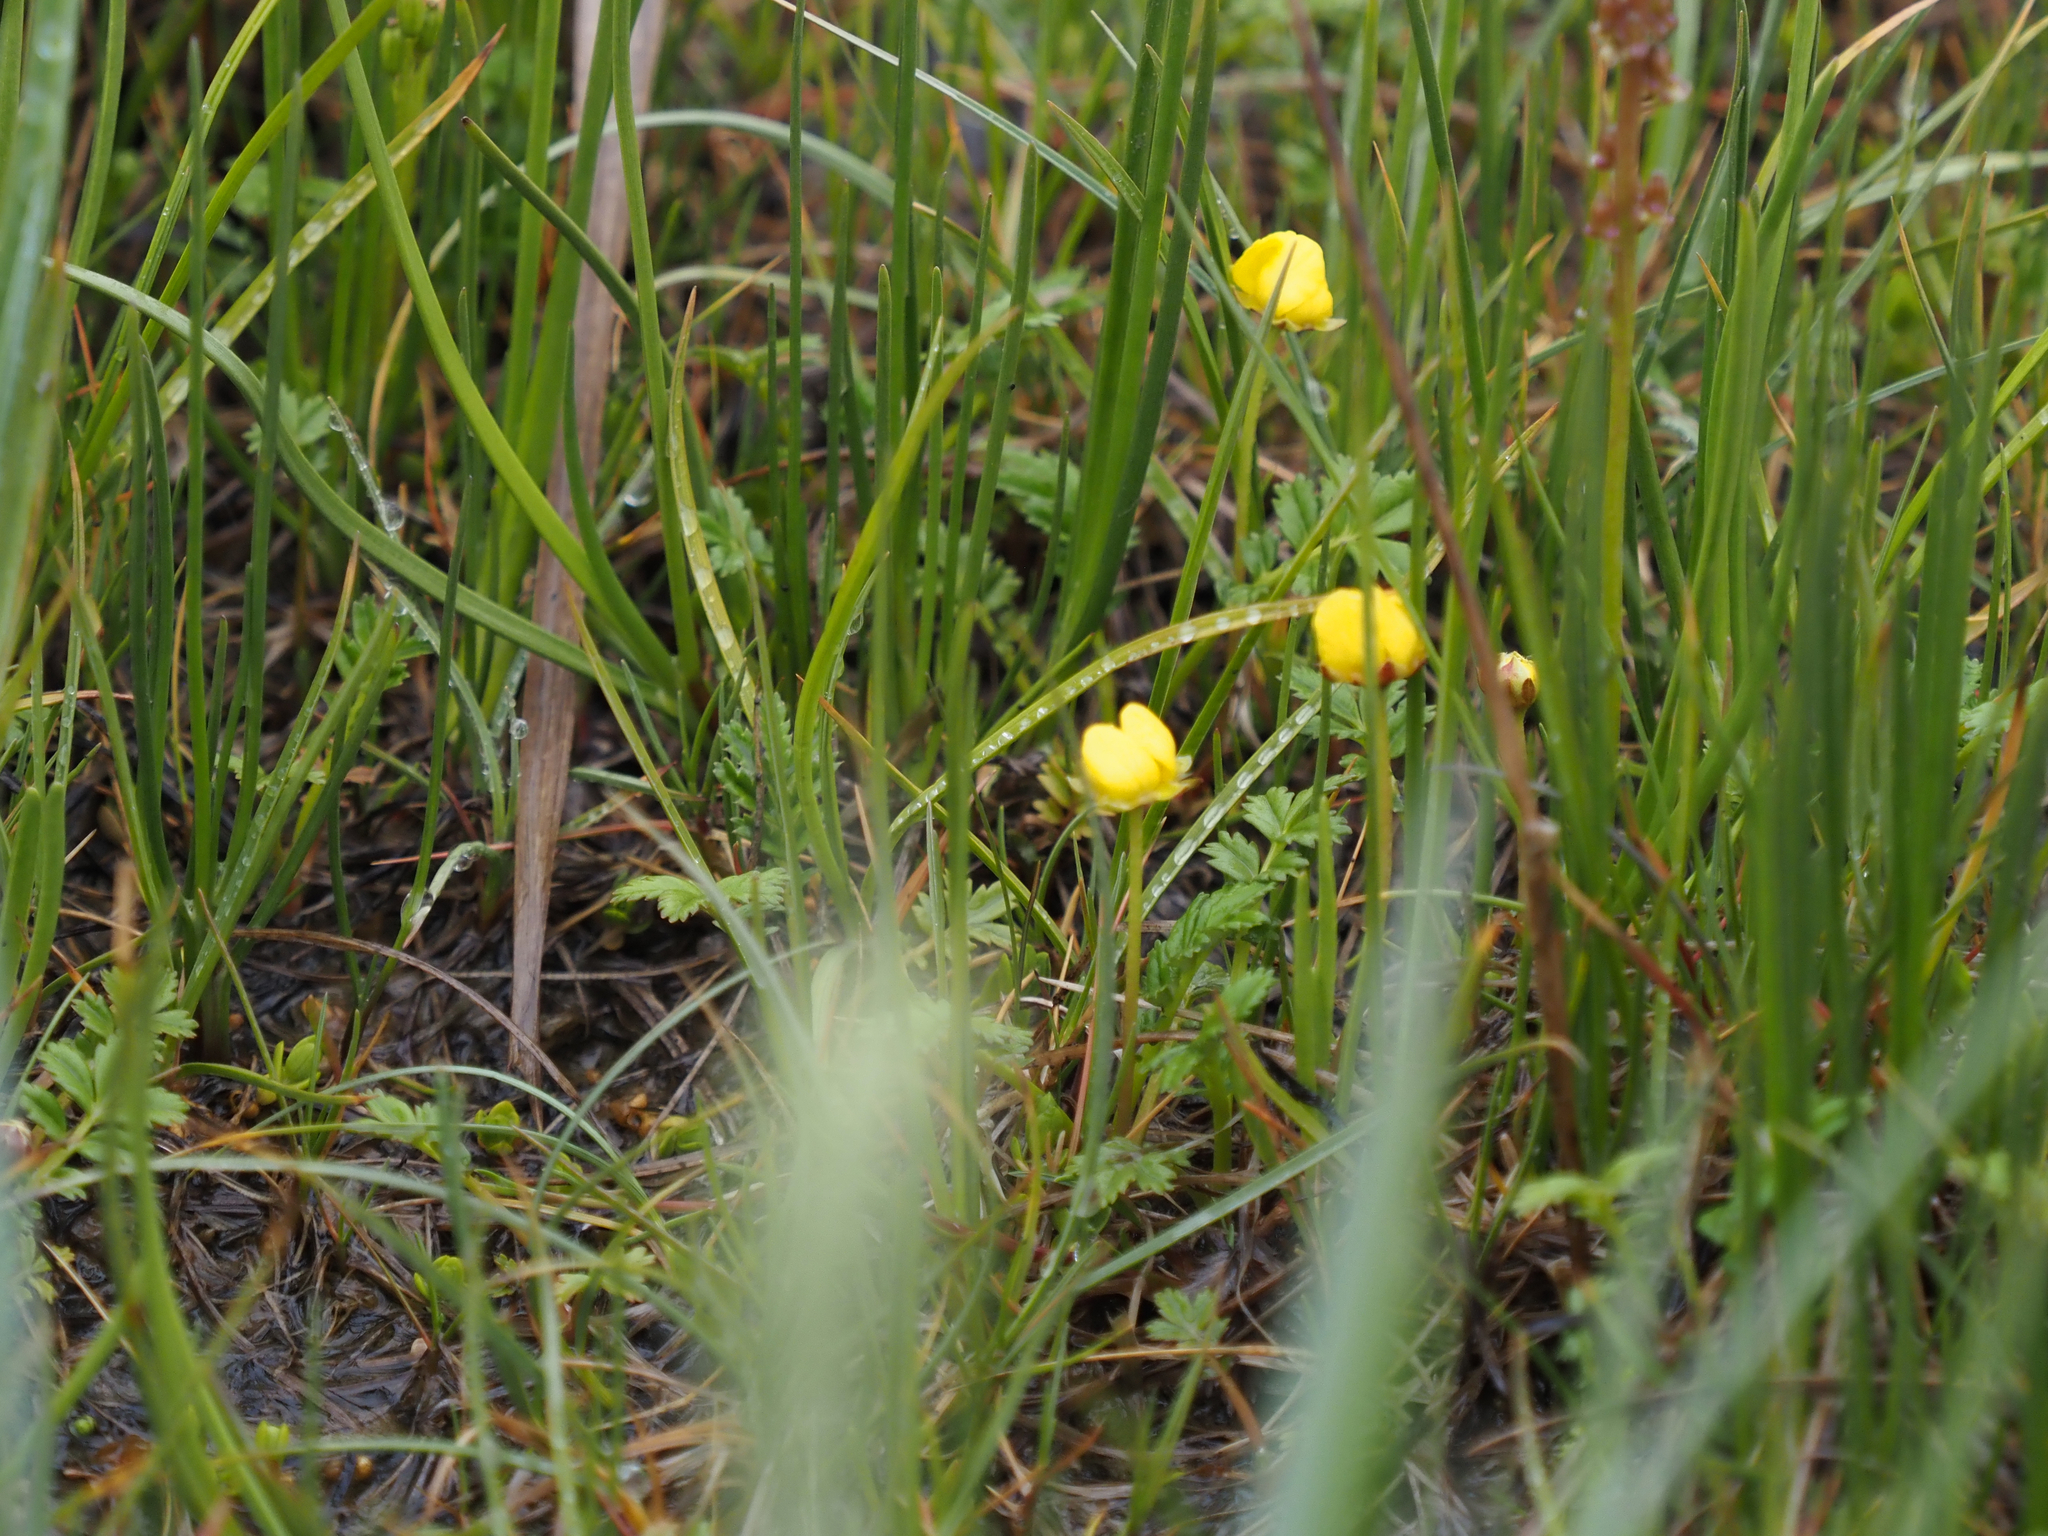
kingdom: Plantae
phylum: Tracheophyta
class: Magnoliopsida
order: Rosales
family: Rosaceae
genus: Argentina
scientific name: Argentina anserina
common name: Common silverweed
